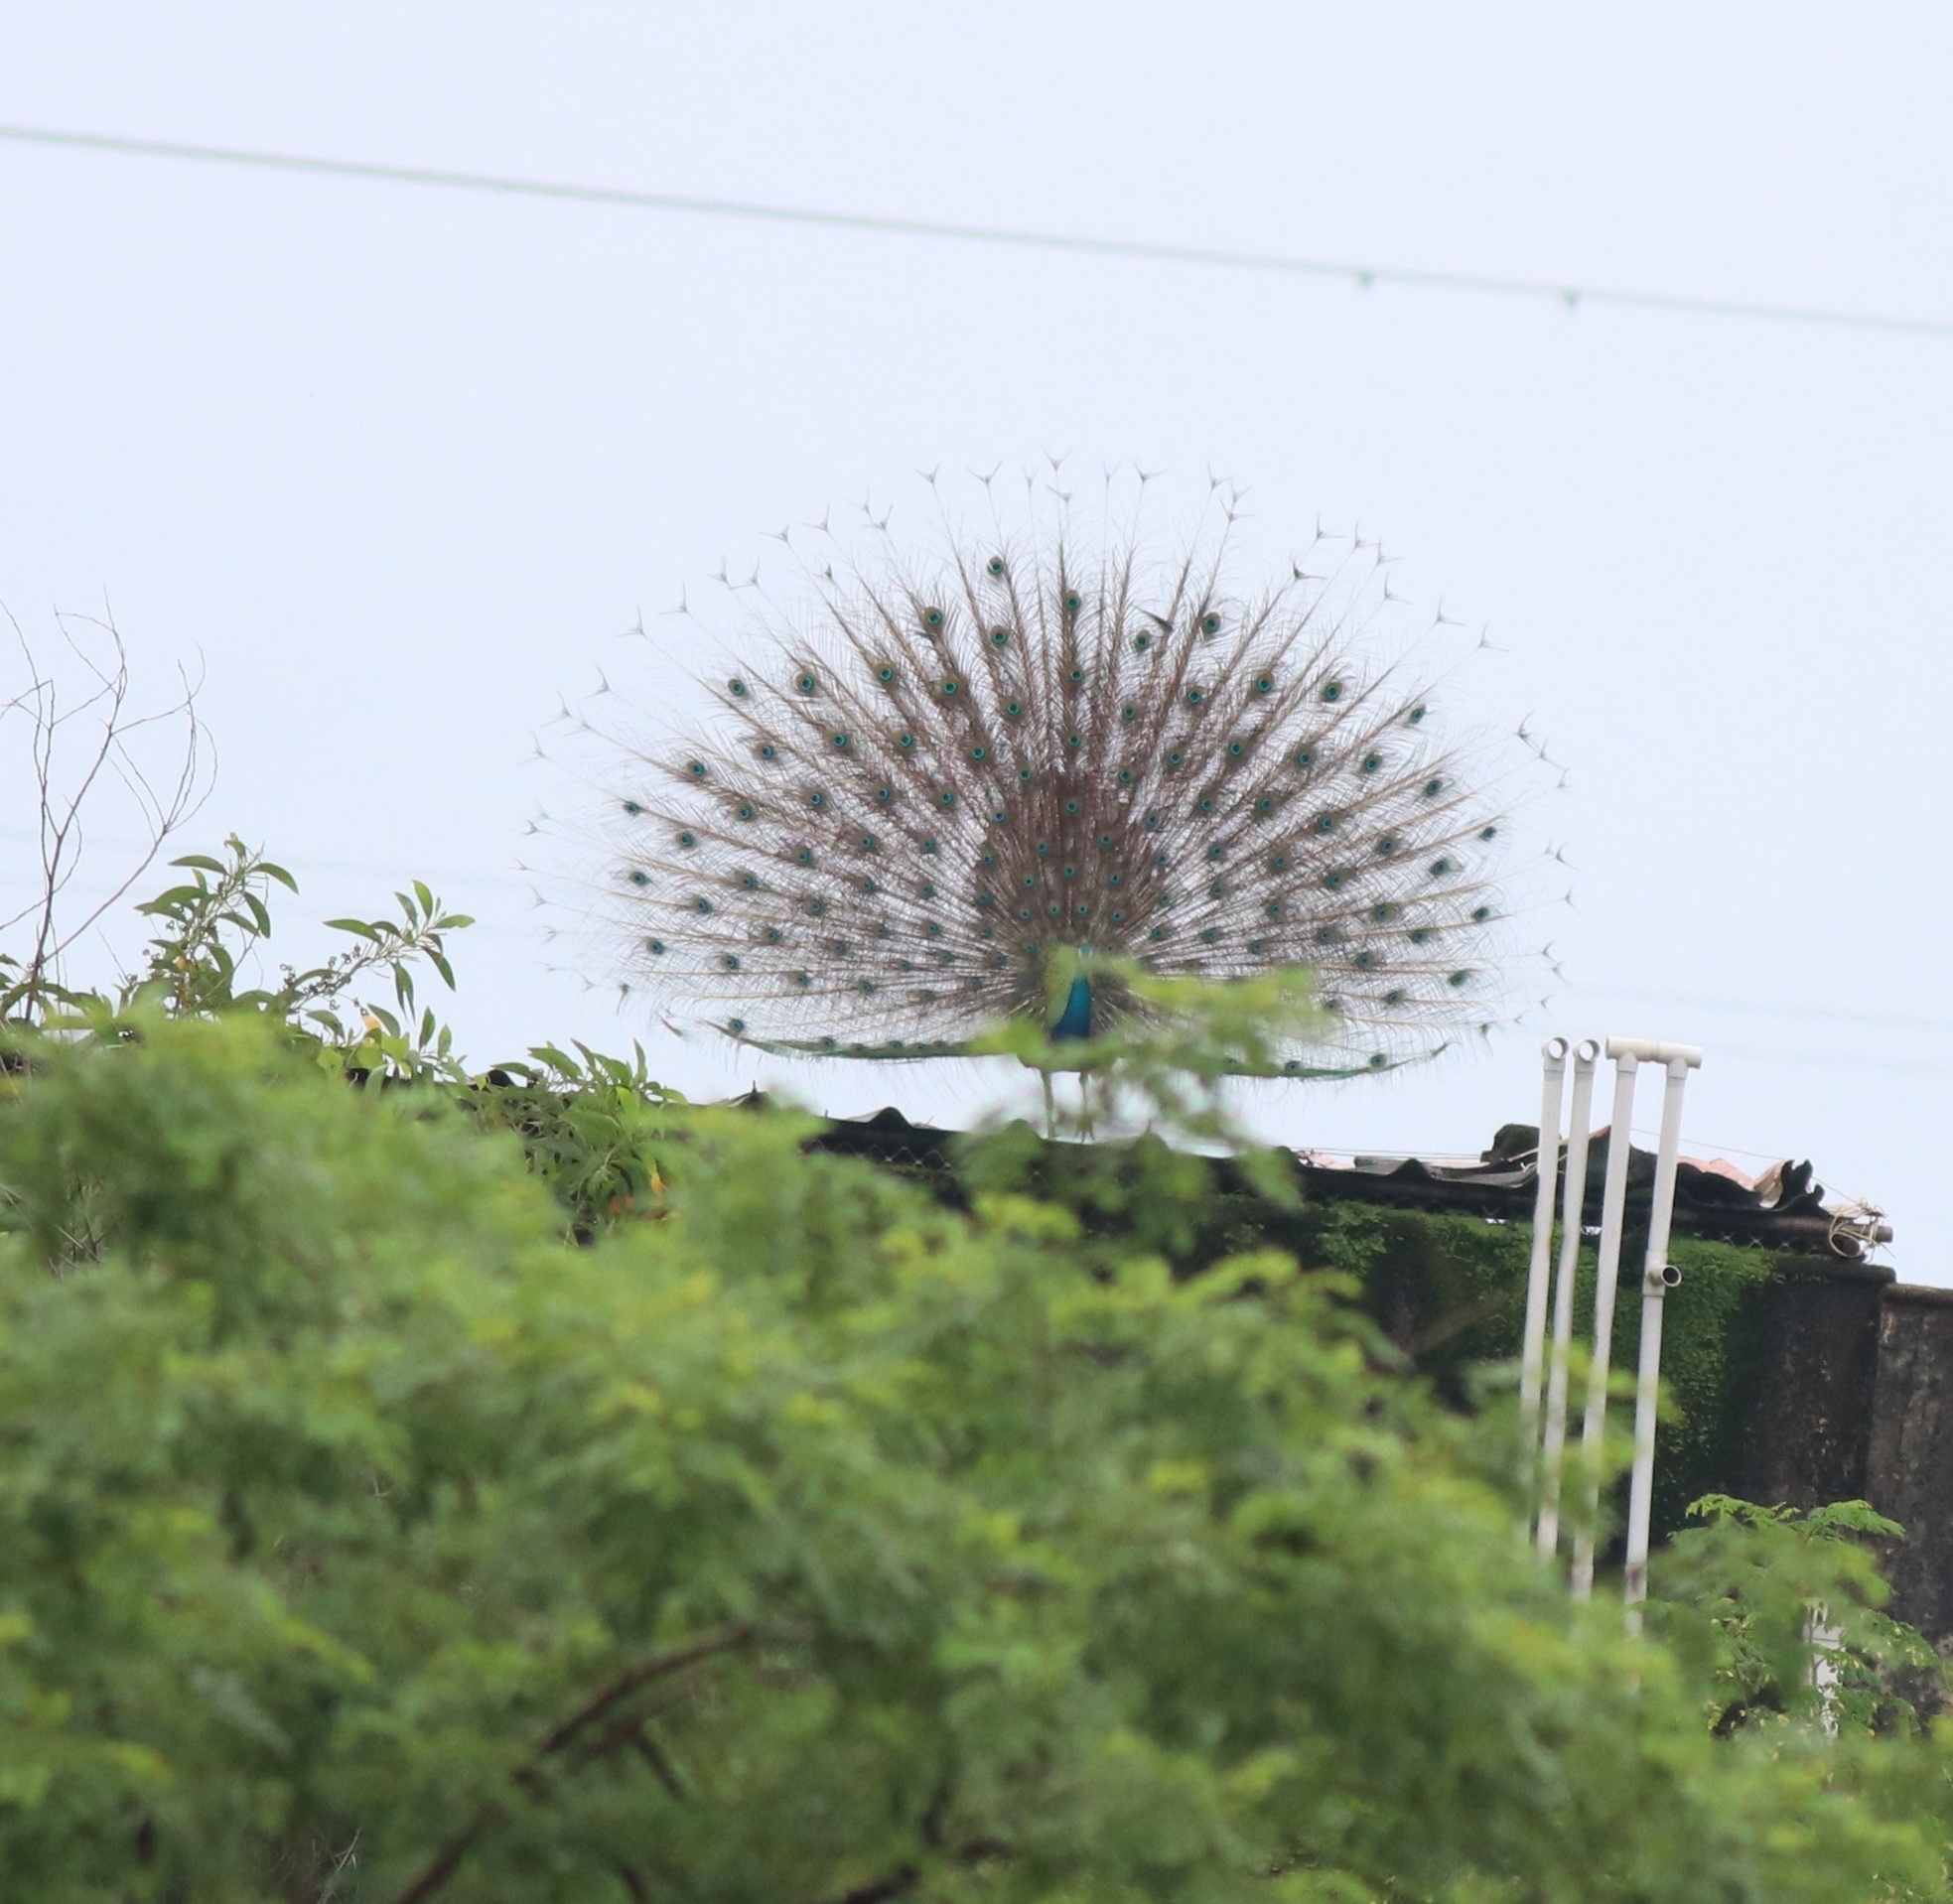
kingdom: Animalia
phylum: Chordata
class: Aves
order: Galliformes
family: Phasianidae
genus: Pavo
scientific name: Pavo cristatus
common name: Indian peafowl
